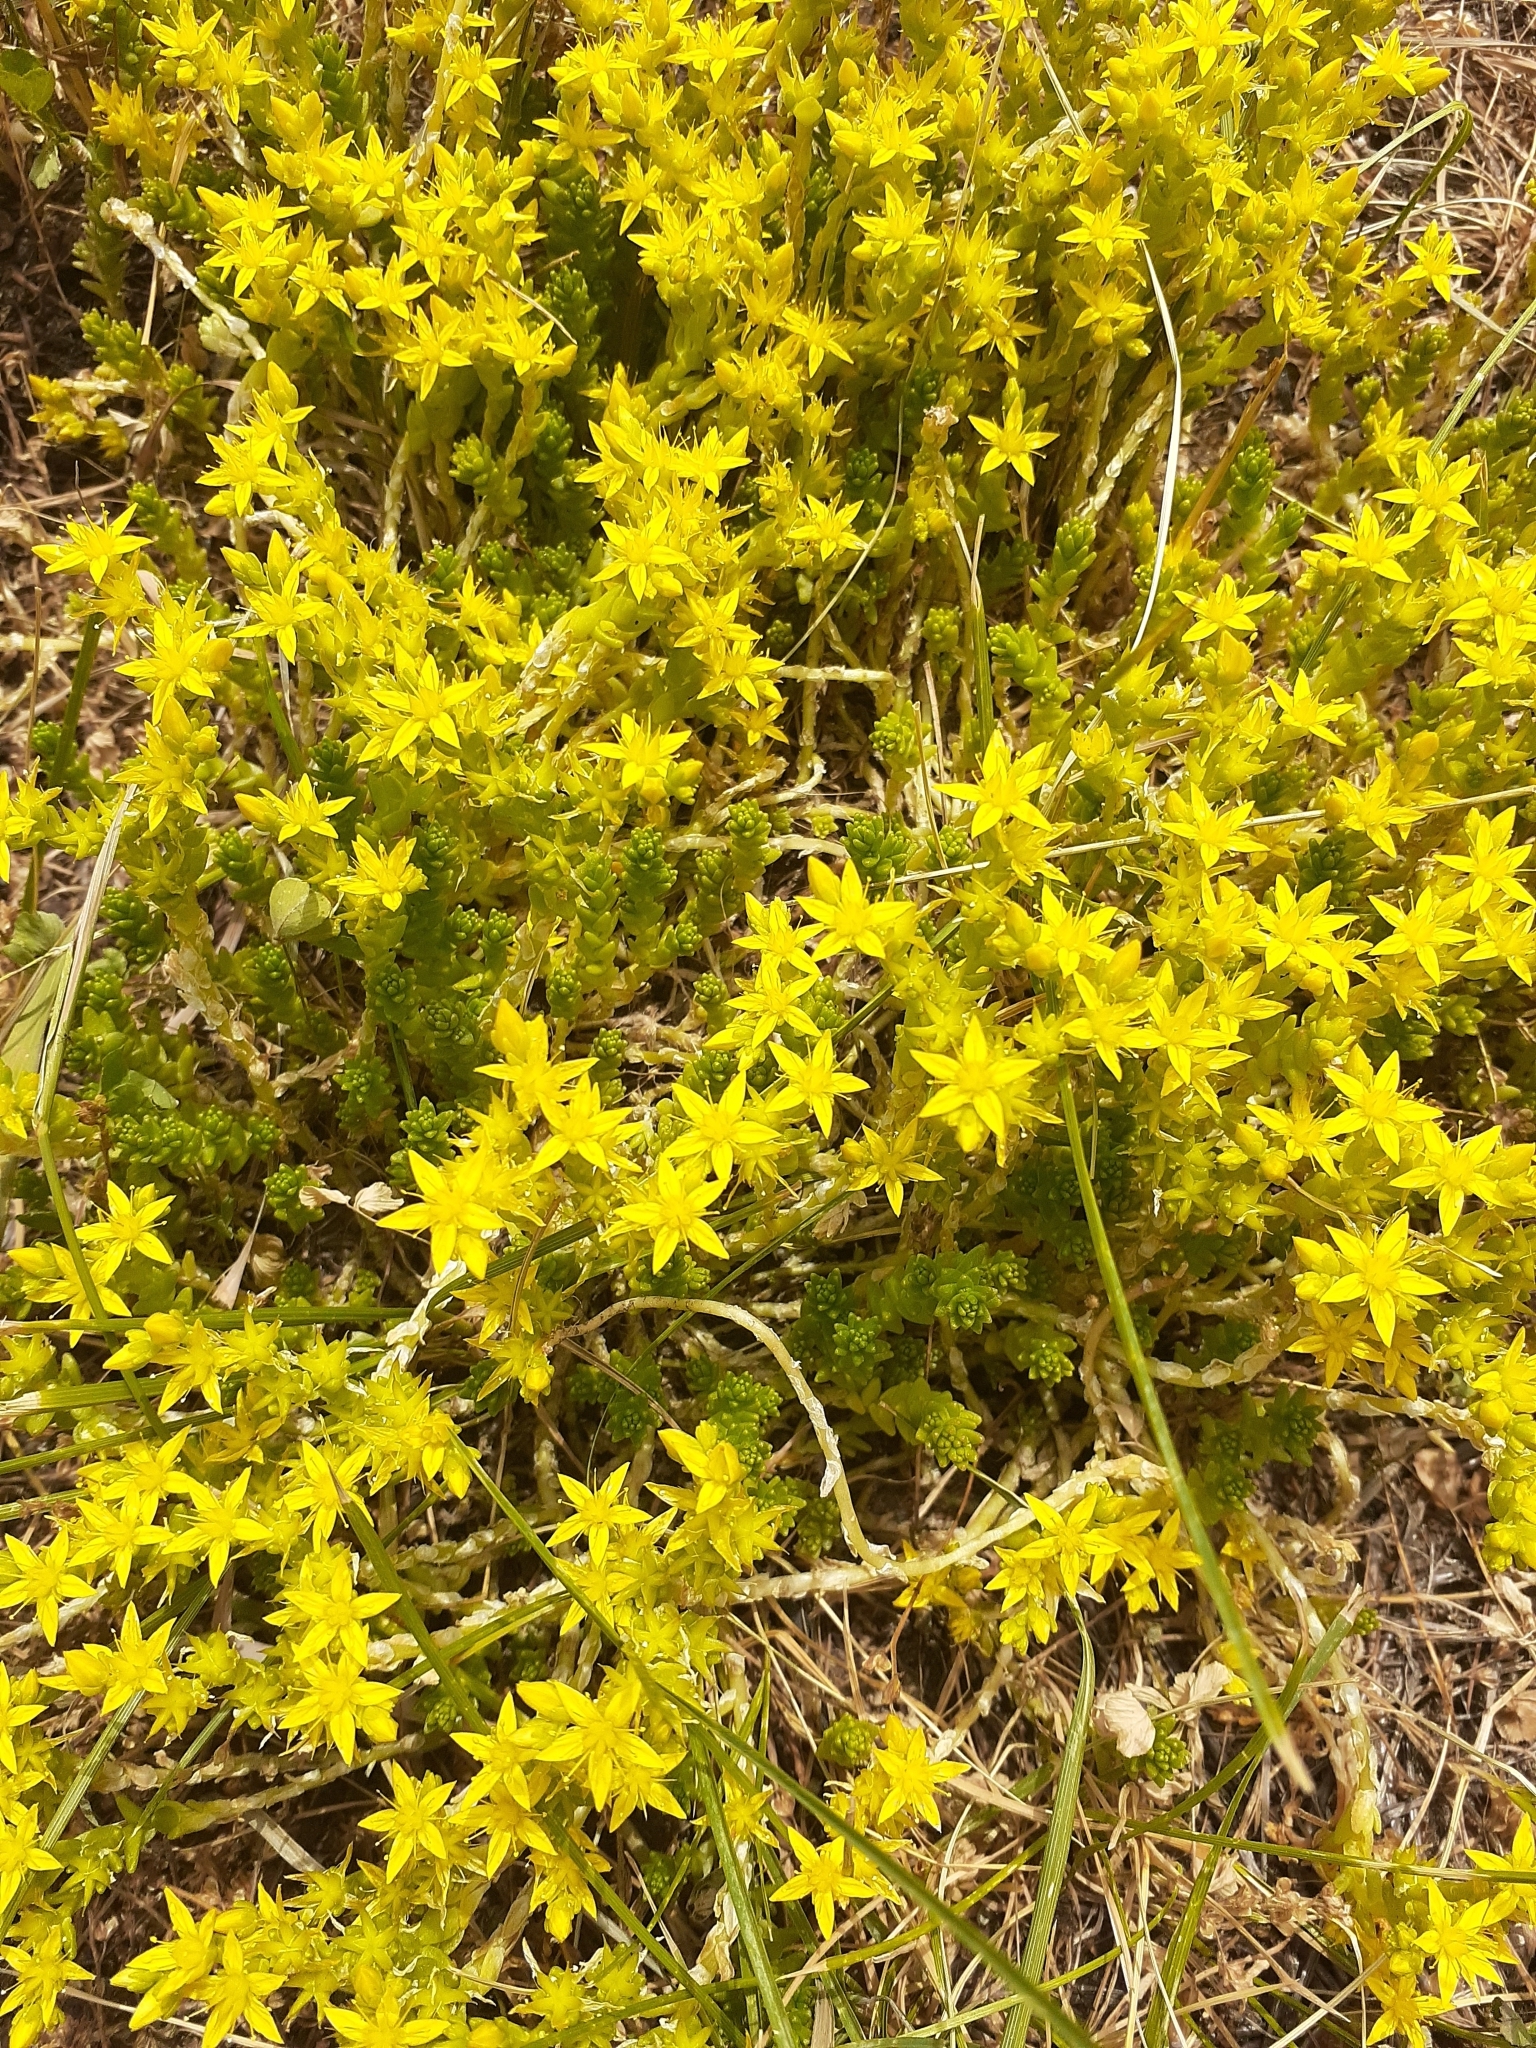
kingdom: Plantae
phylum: Tracheophyta
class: Magnoliopsida
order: Saxifragales
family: Crassulaceae
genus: Sedum
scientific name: Sedum acre
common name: Biting stonecrop
